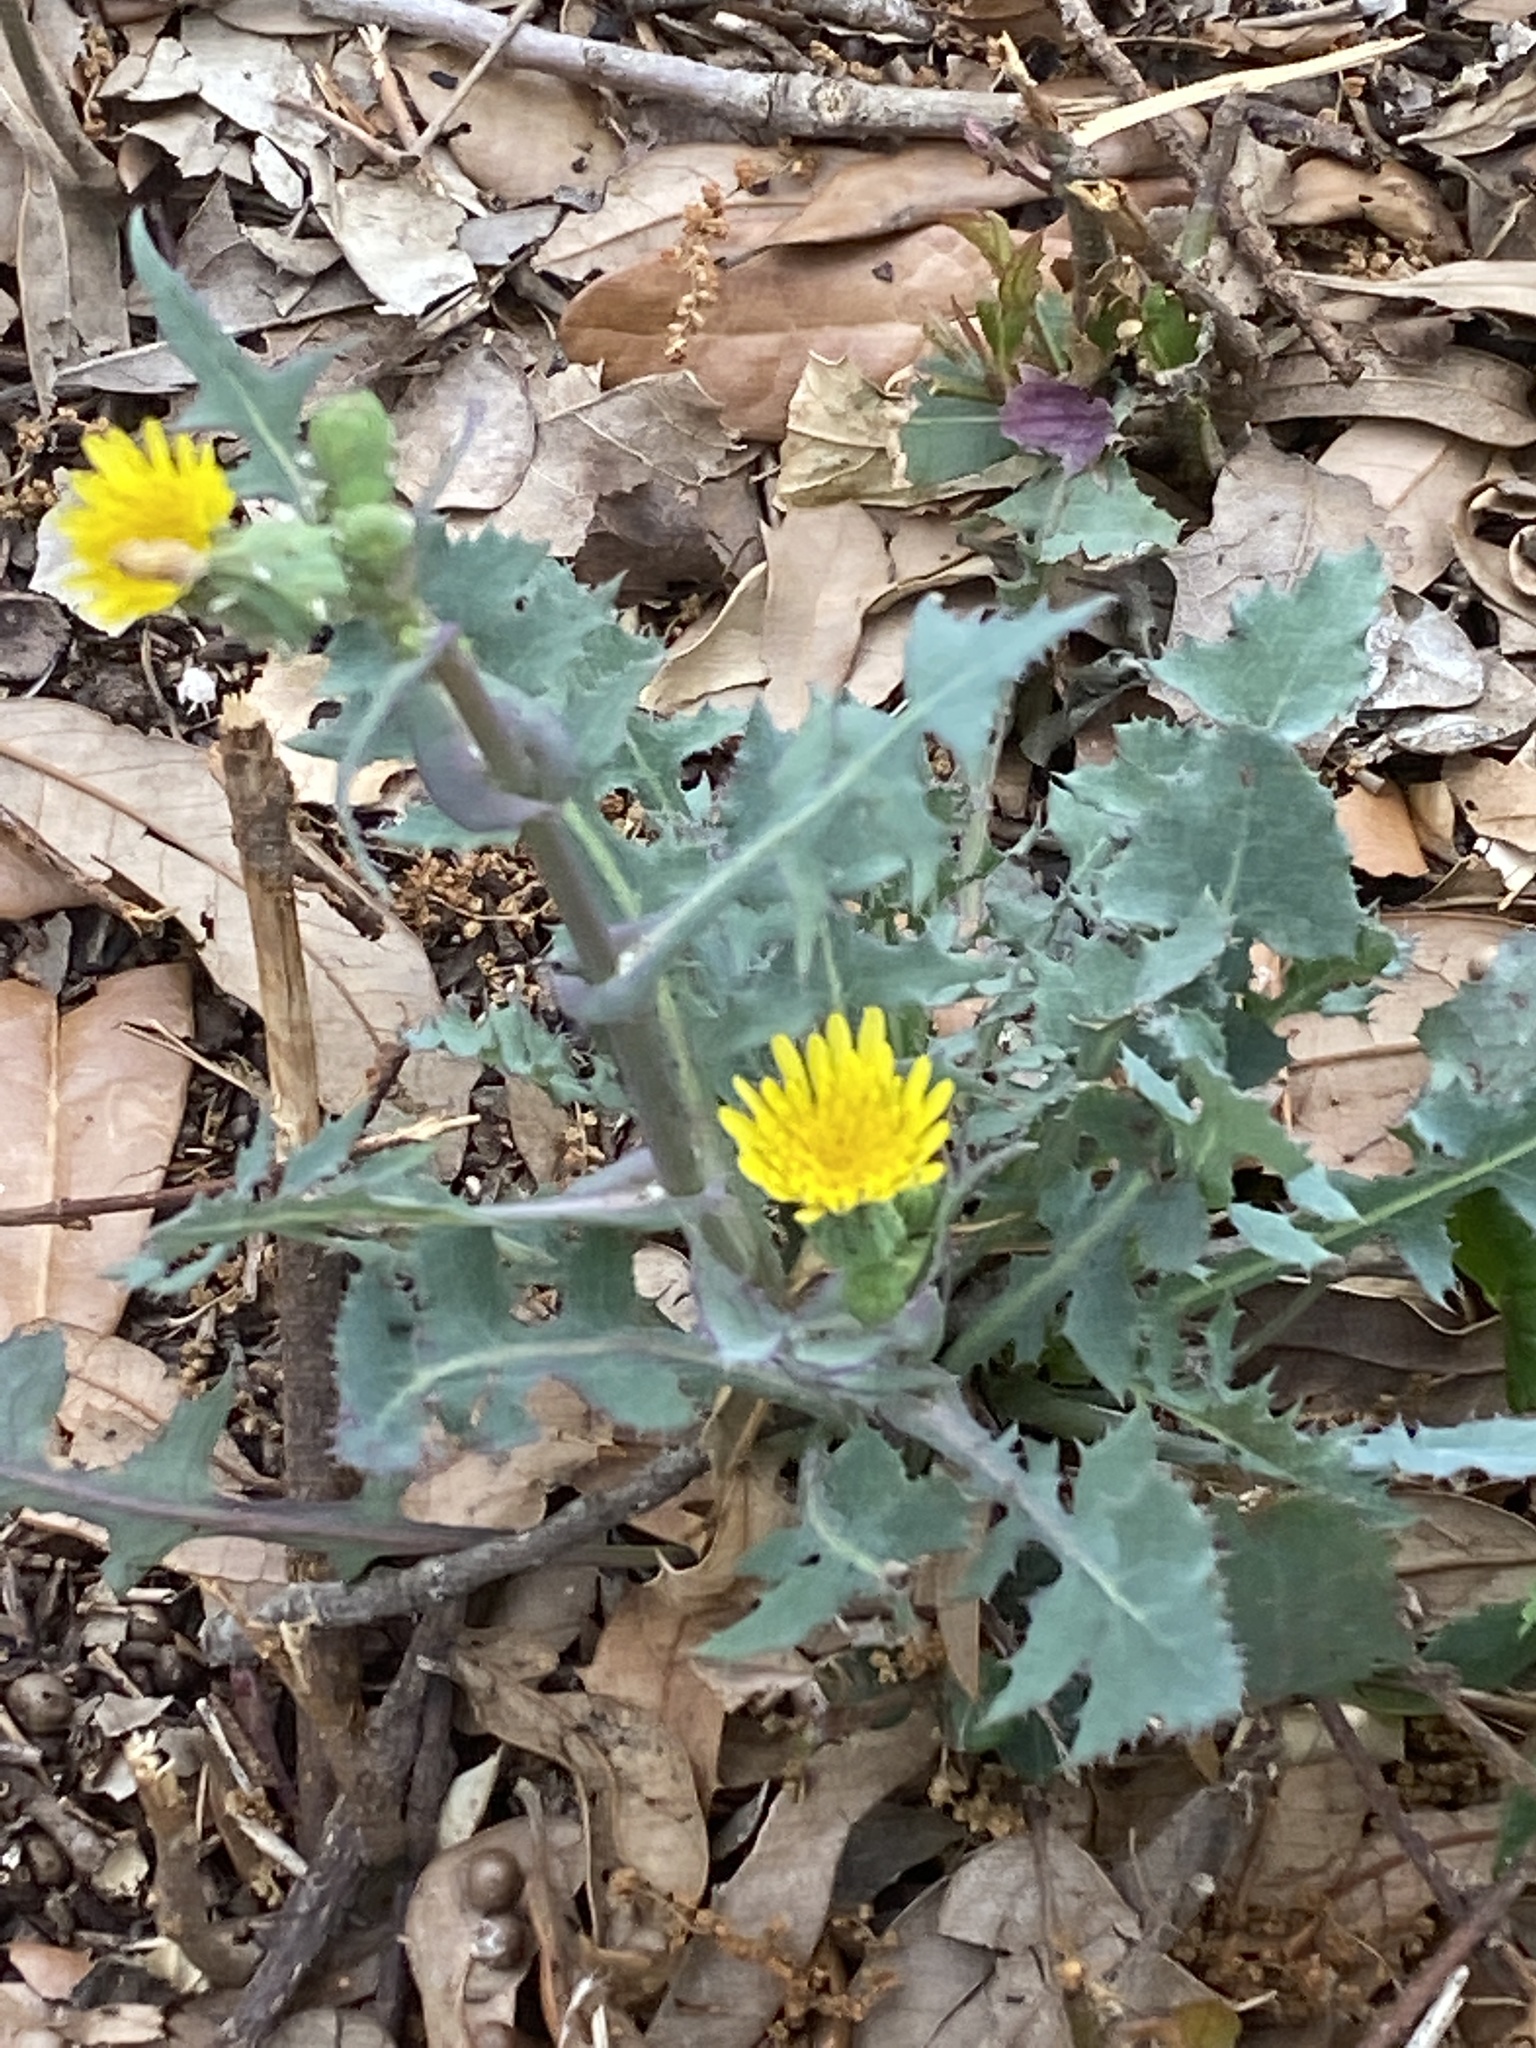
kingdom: Plantae
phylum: Tracheophyta
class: Magnoliopsida
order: Asterales
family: Asteraceae
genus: Sonchus
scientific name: Sonchus oleraceus
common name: Common sowthistle
